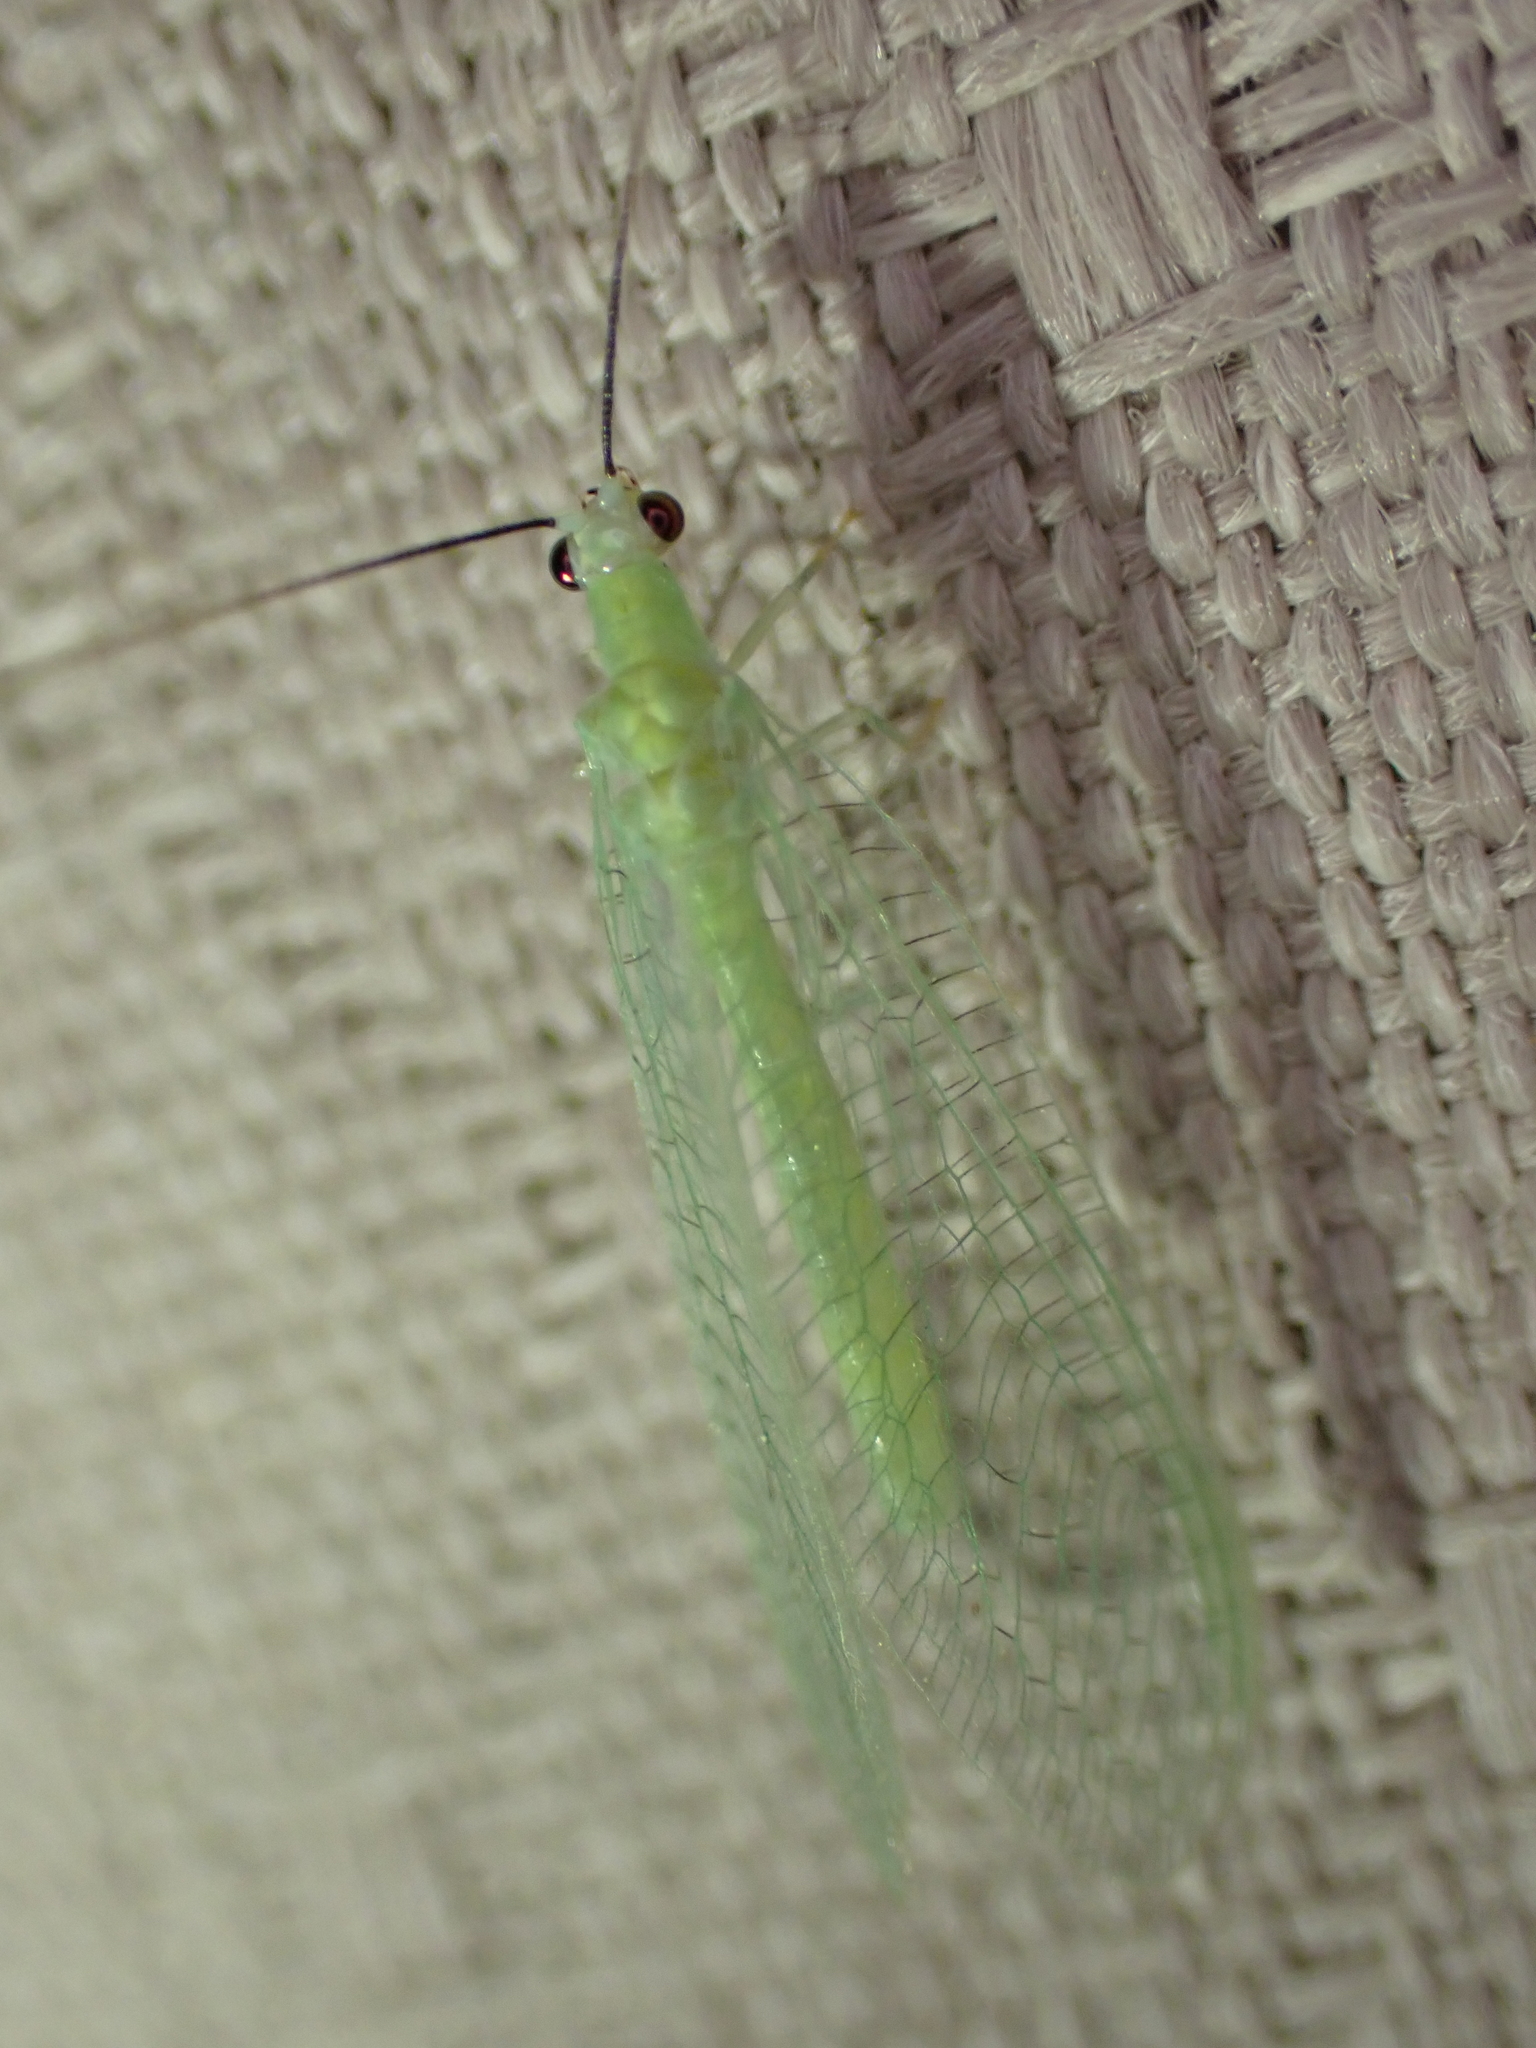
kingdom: Animalia
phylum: Arthropoda
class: Insecta
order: Neuroptera
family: Chrysopidae
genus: Chrysopa
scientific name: Chrysopa nigricornis
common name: Black-horned green lacewing
